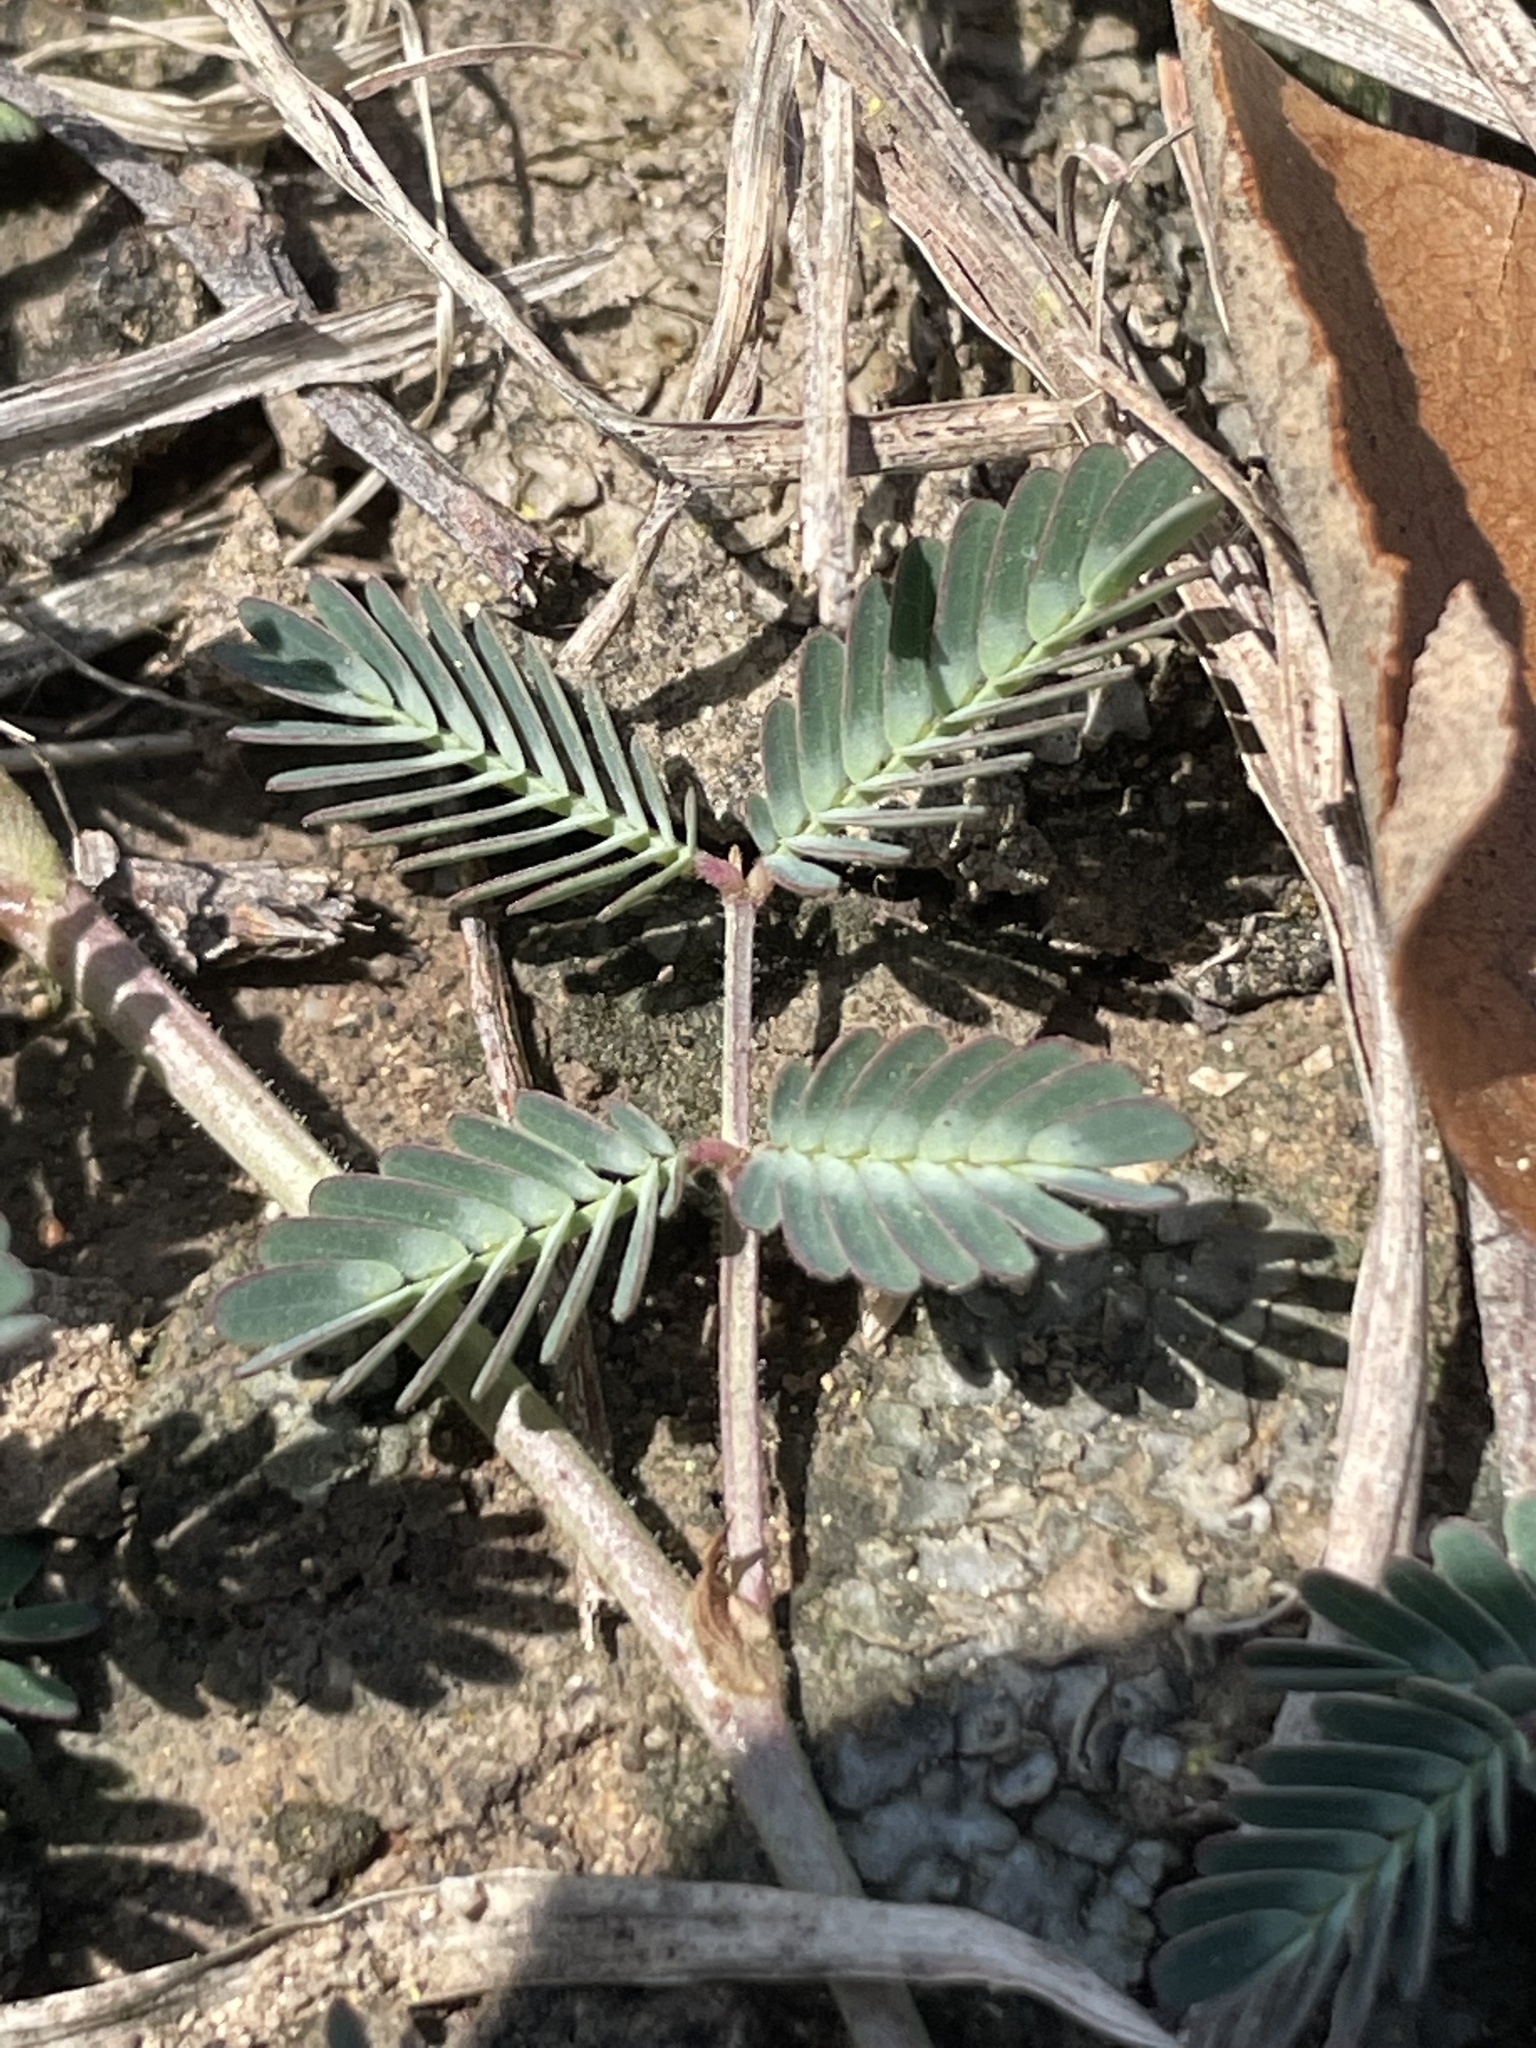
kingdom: Plantae
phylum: Tracheophyta
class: Magnoliopsida
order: Fabales
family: Fabaceae
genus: Neptunia
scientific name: Neptunia pubescens
